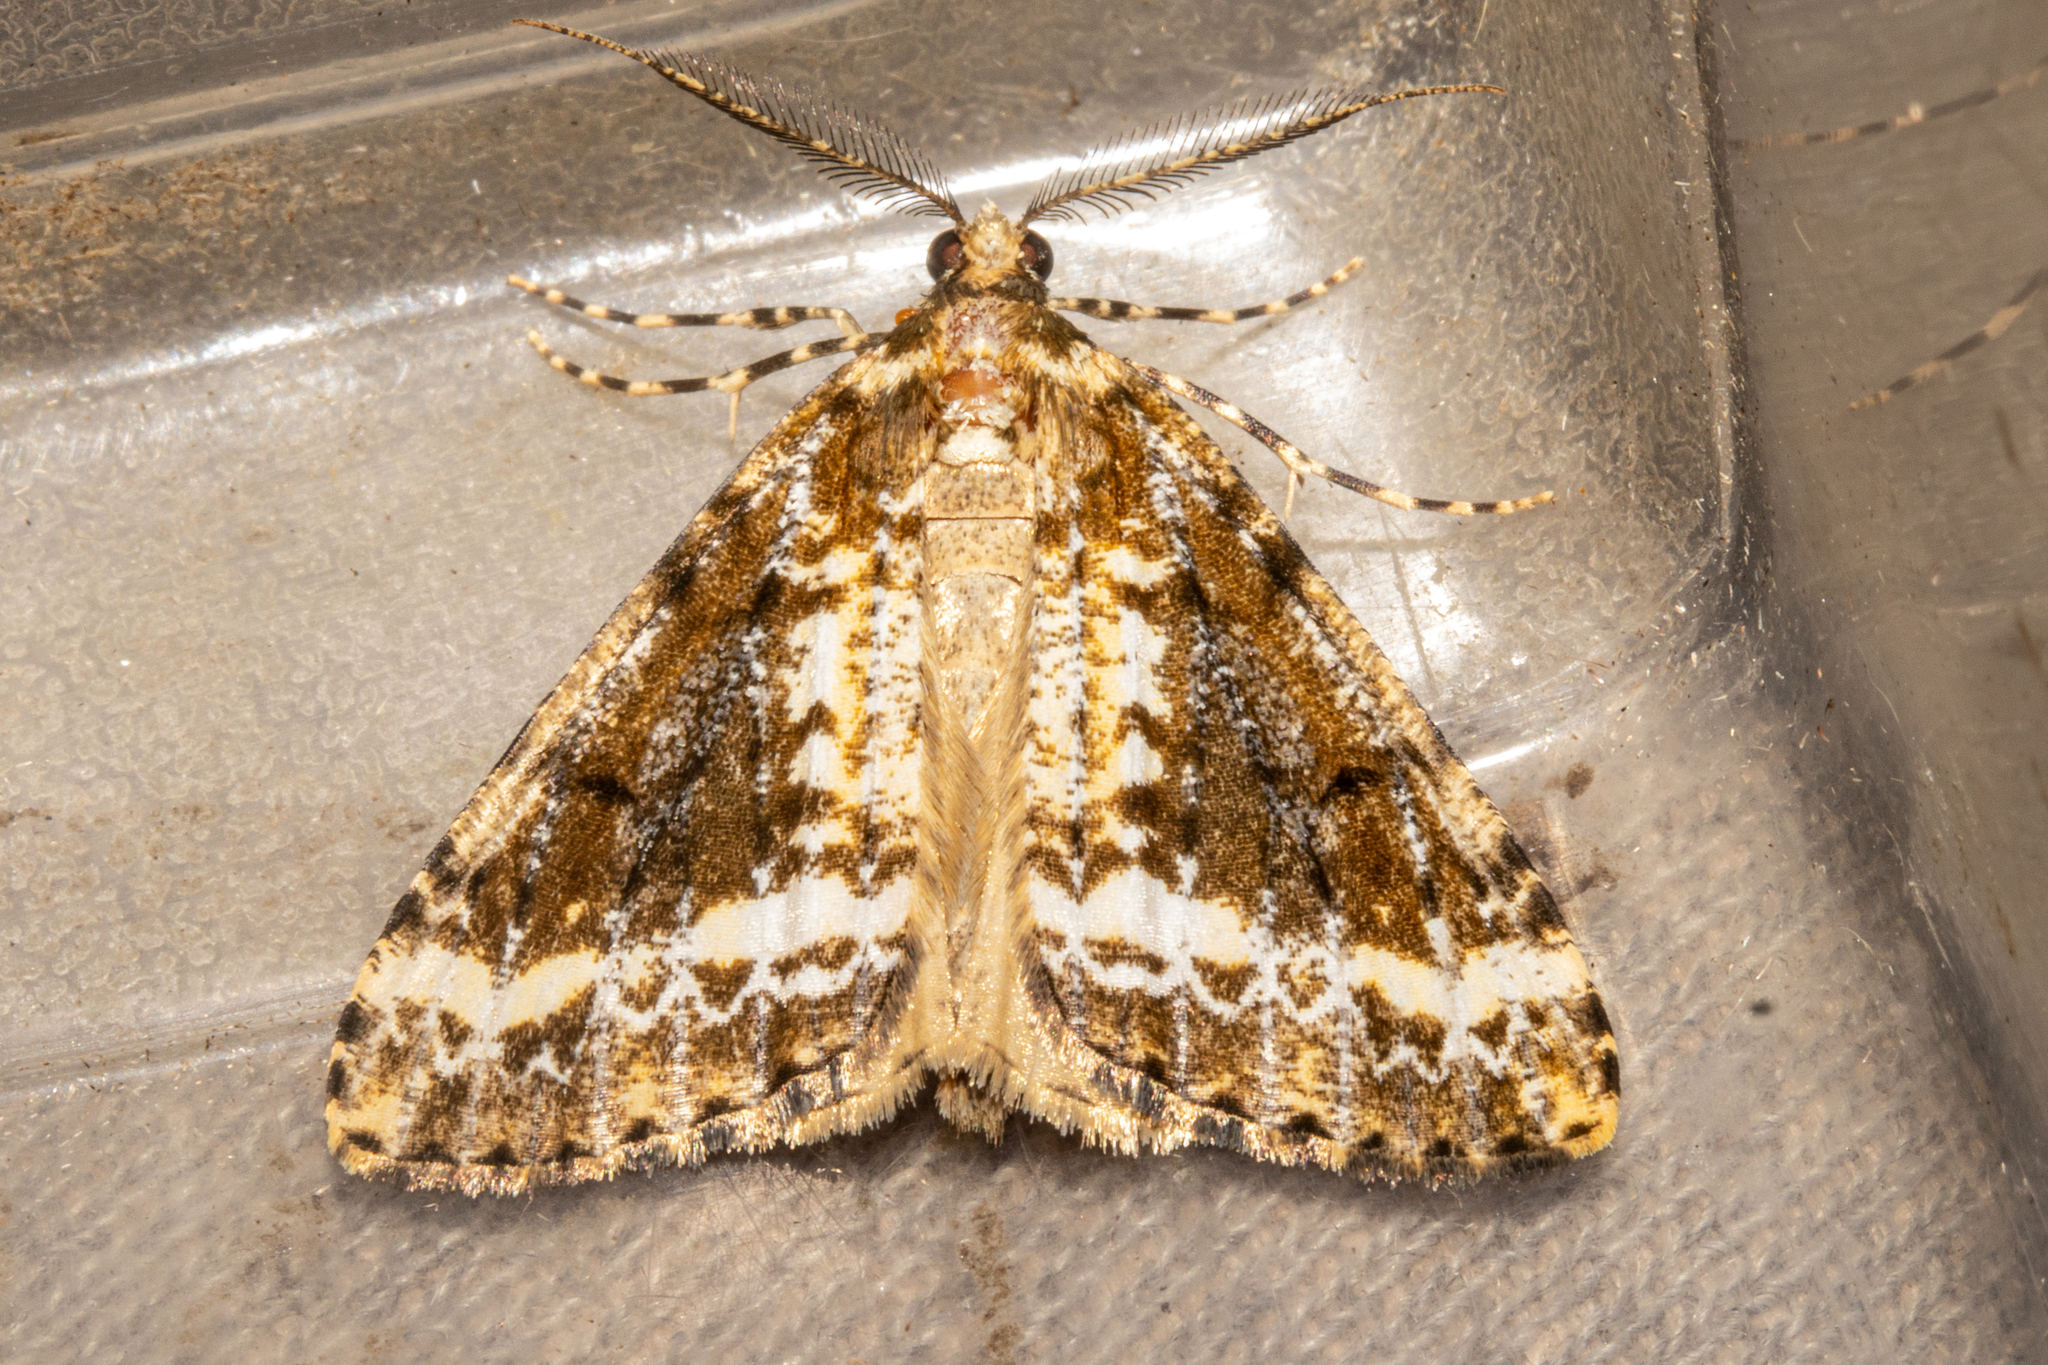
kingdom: Animalia
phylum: Arthropoda
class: Insecta
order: Lepidoptera
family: Geometridae
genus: Pseudocoremia
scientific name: Pseudocoremia leucelaea
